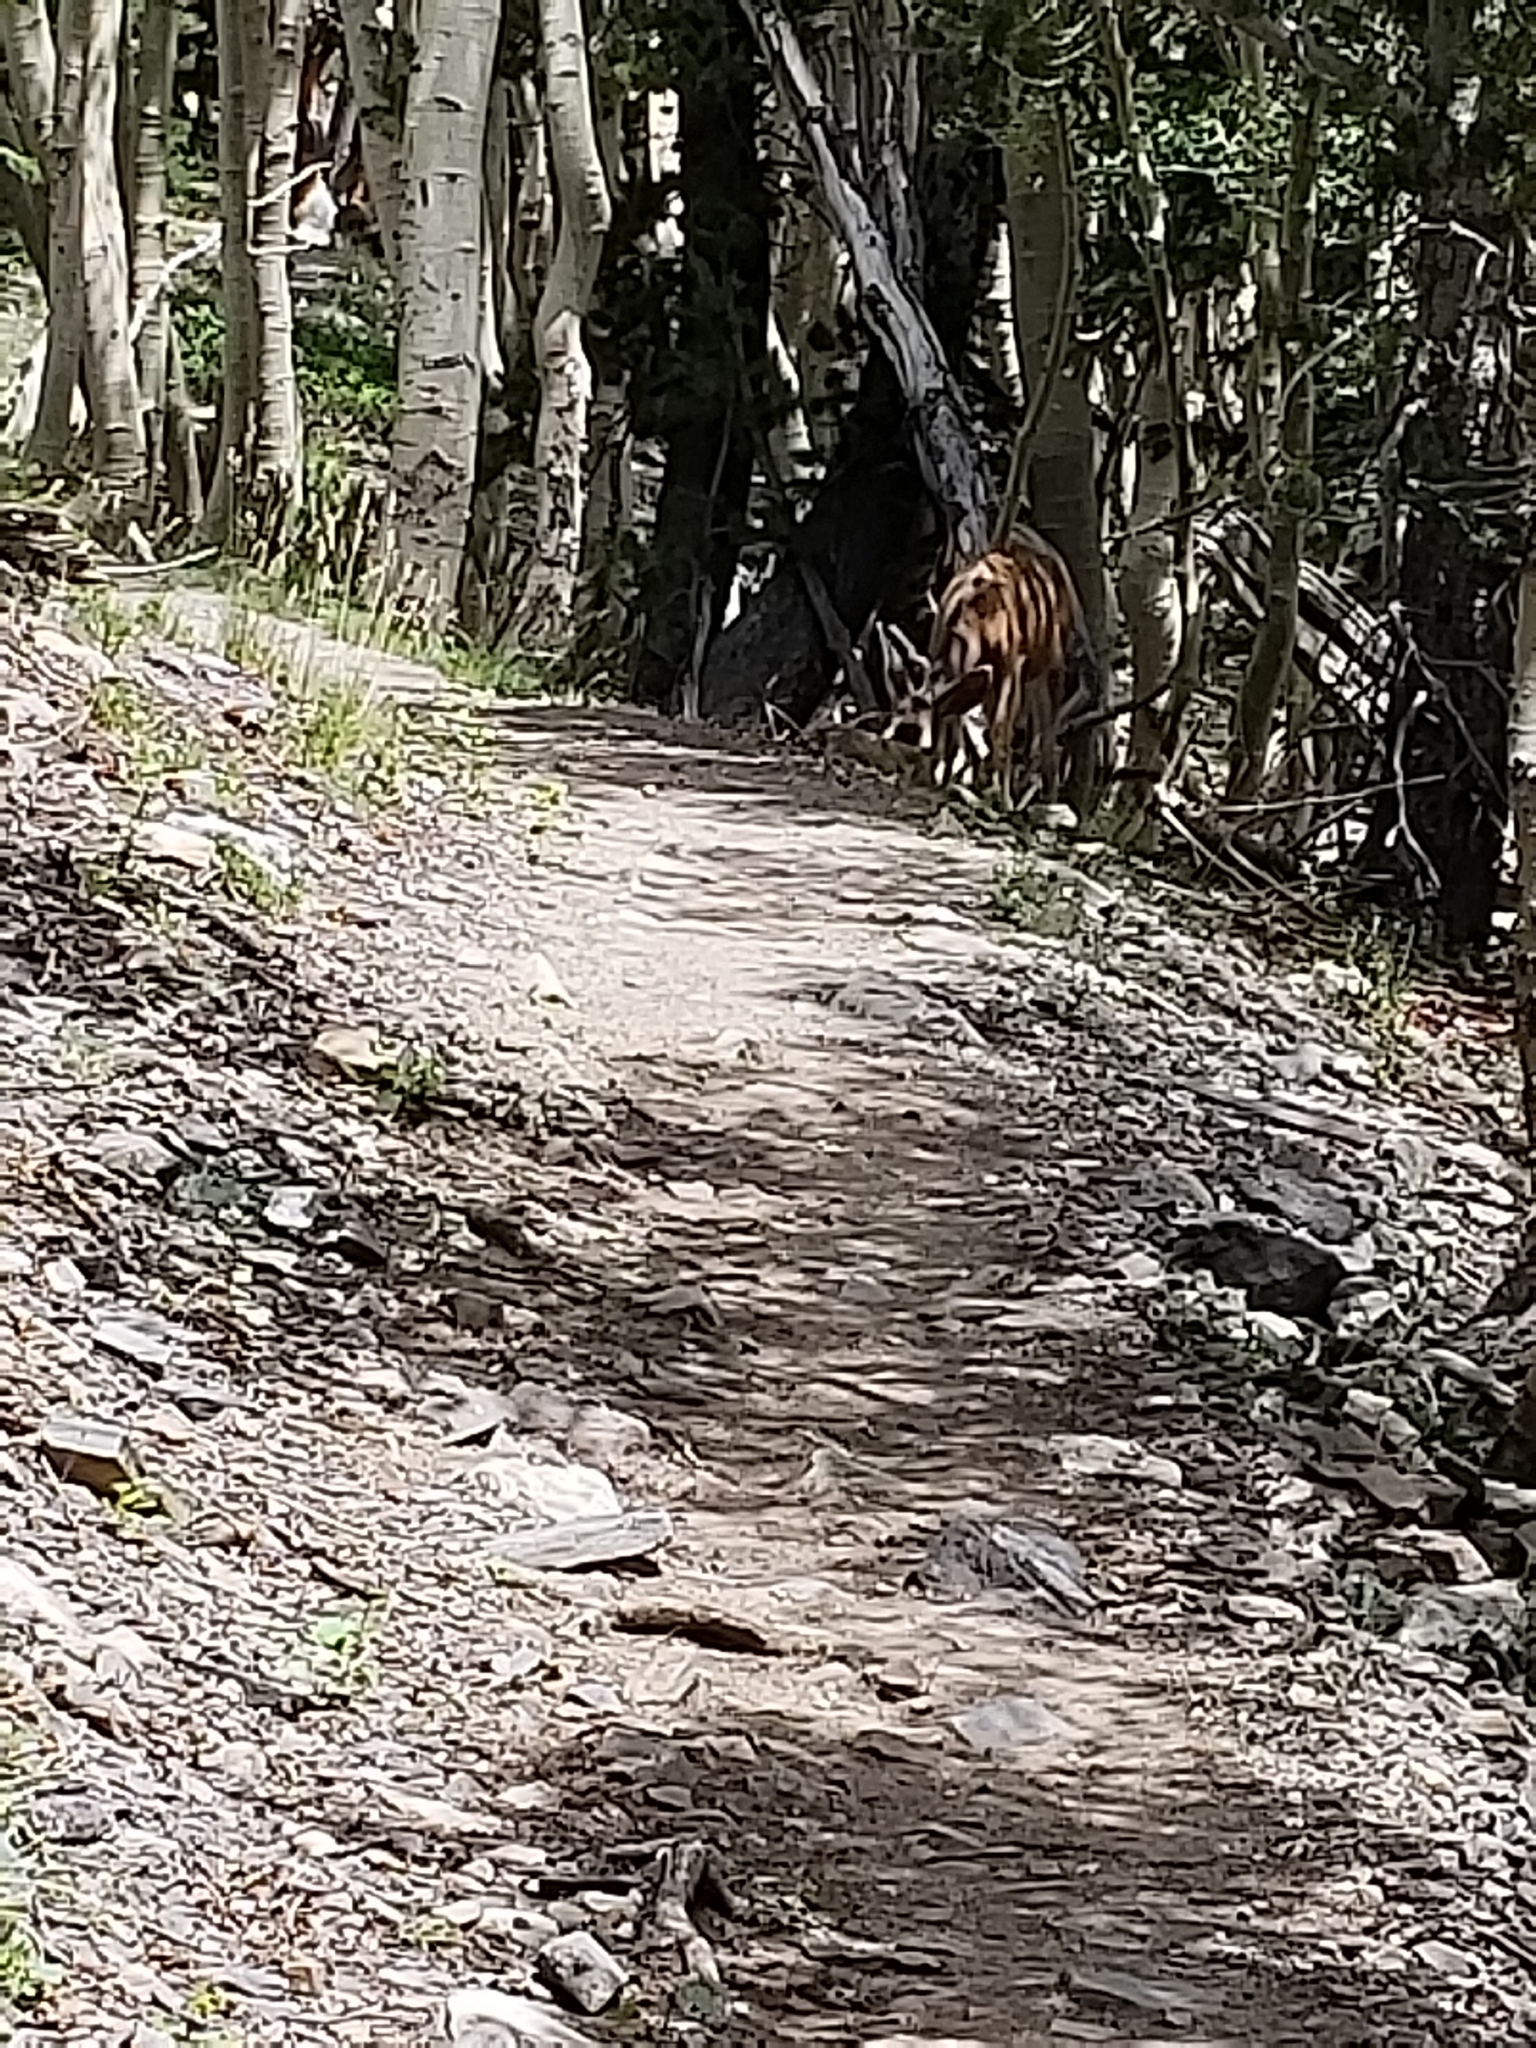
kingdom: Animalia
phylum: Chordata
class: Mammalia
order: Artiodactyla
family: Cervidae
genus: Odocoileus
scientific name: Odocoileus hemionus
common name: Mule deer
